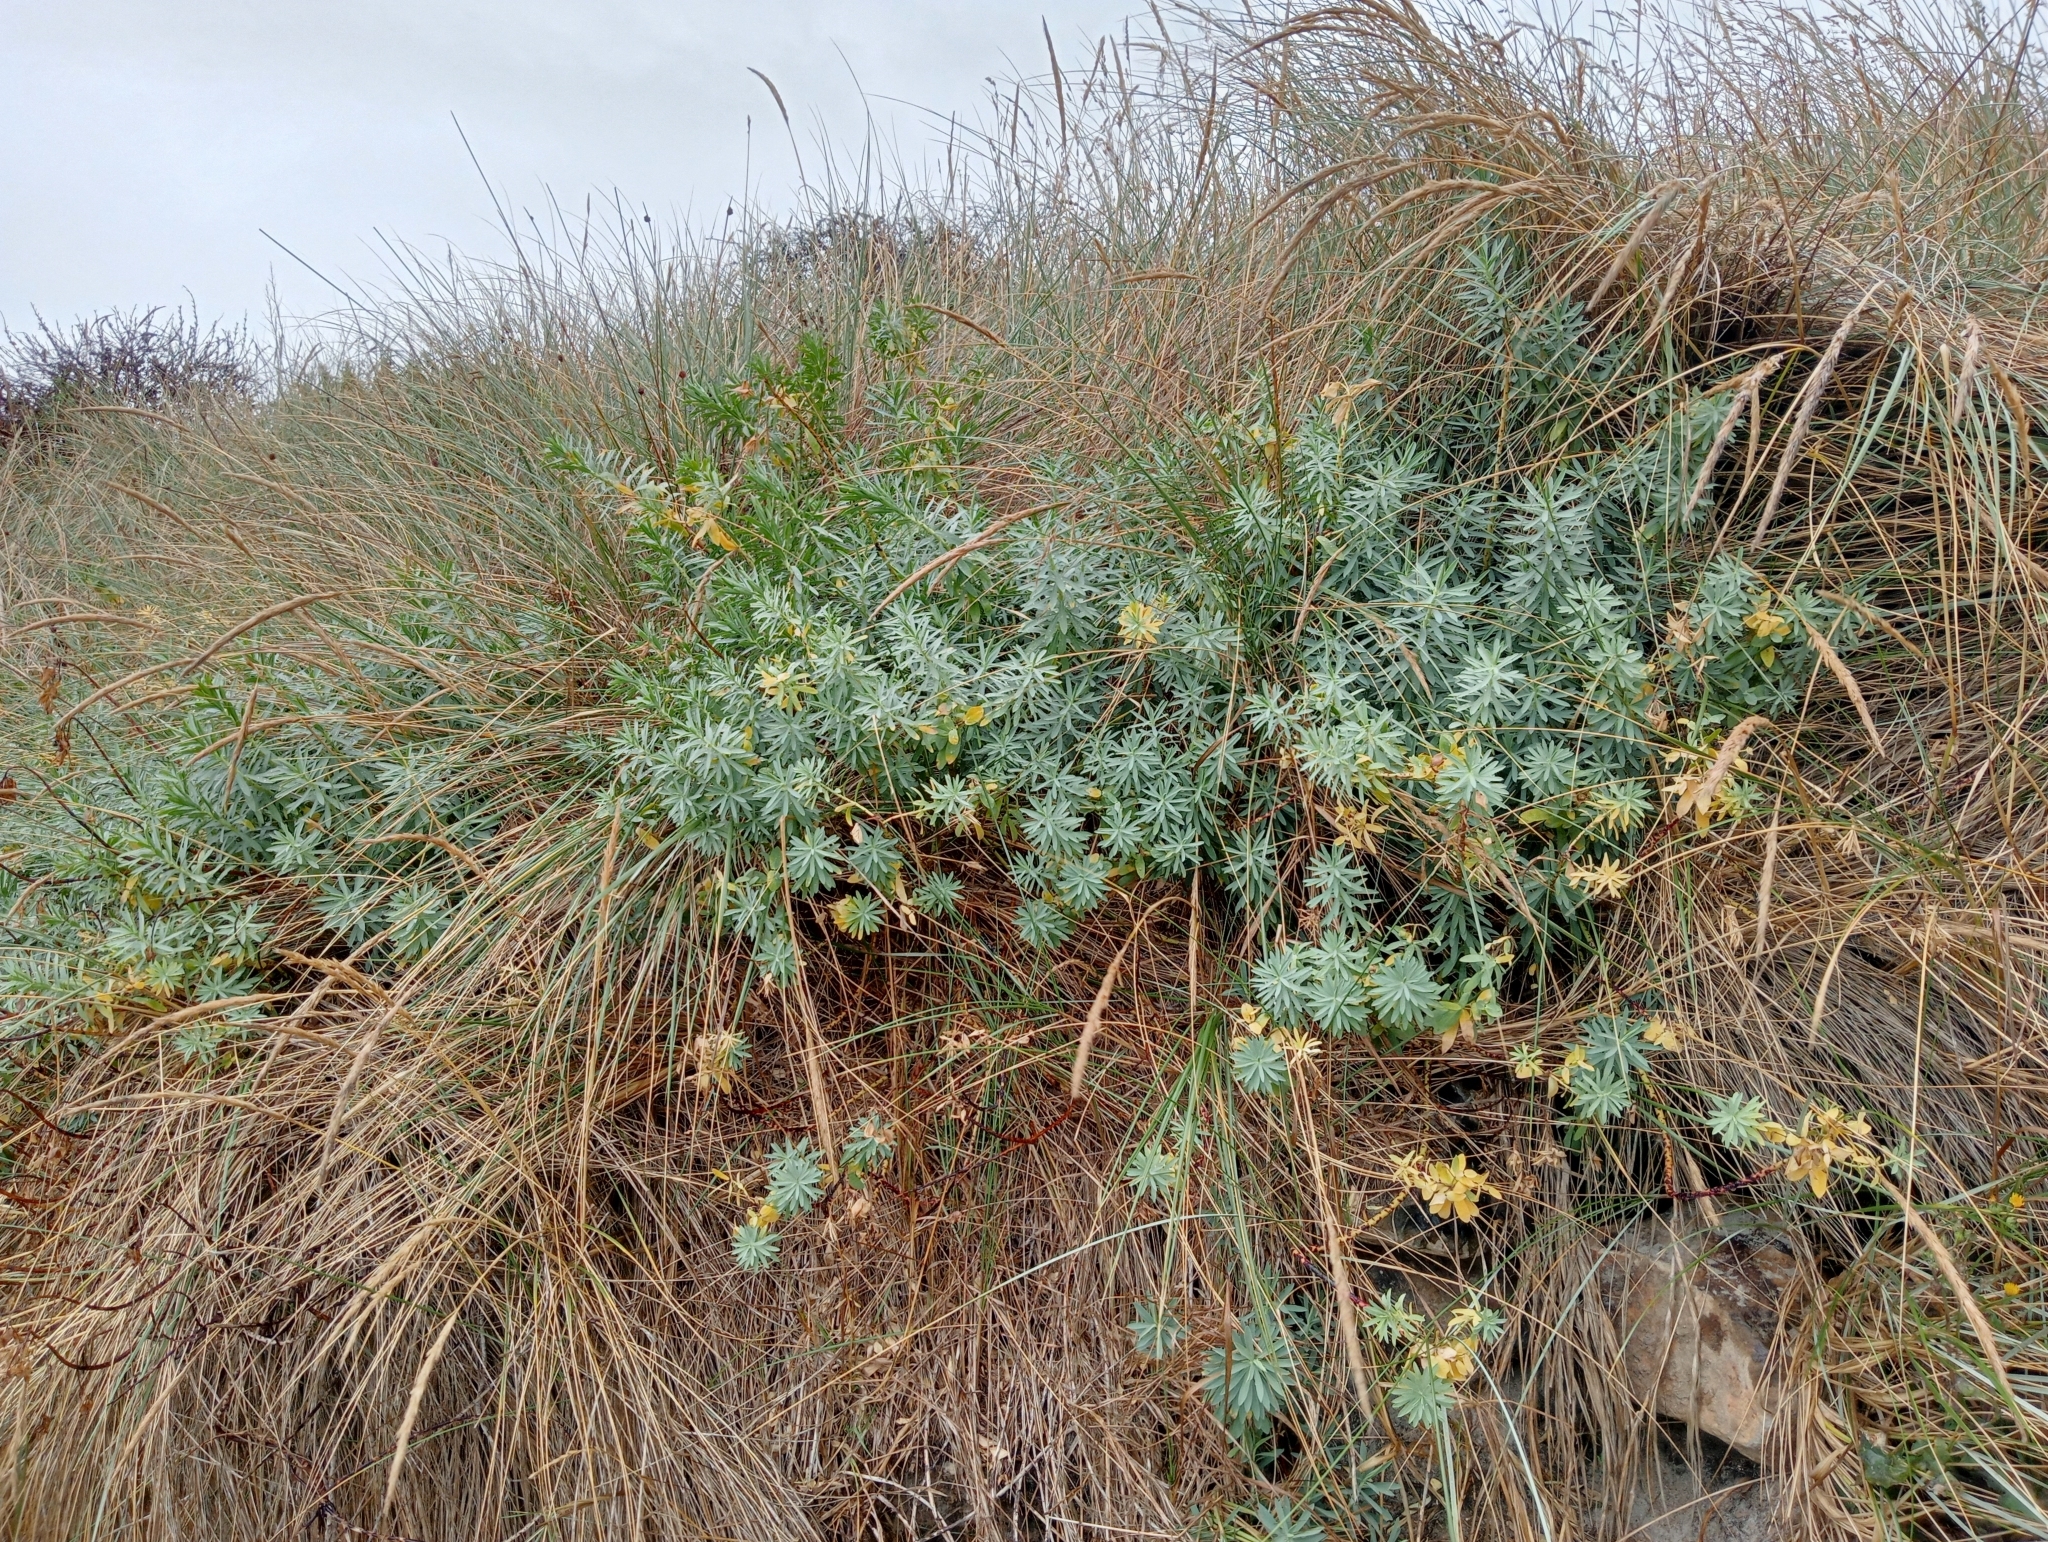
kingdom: Plantae
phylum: Tracheophyta
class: Magnoliopsida
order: Malpighiales
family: Euphorbiaceae
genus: Euphorbia
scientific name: Euphorbia glauca
